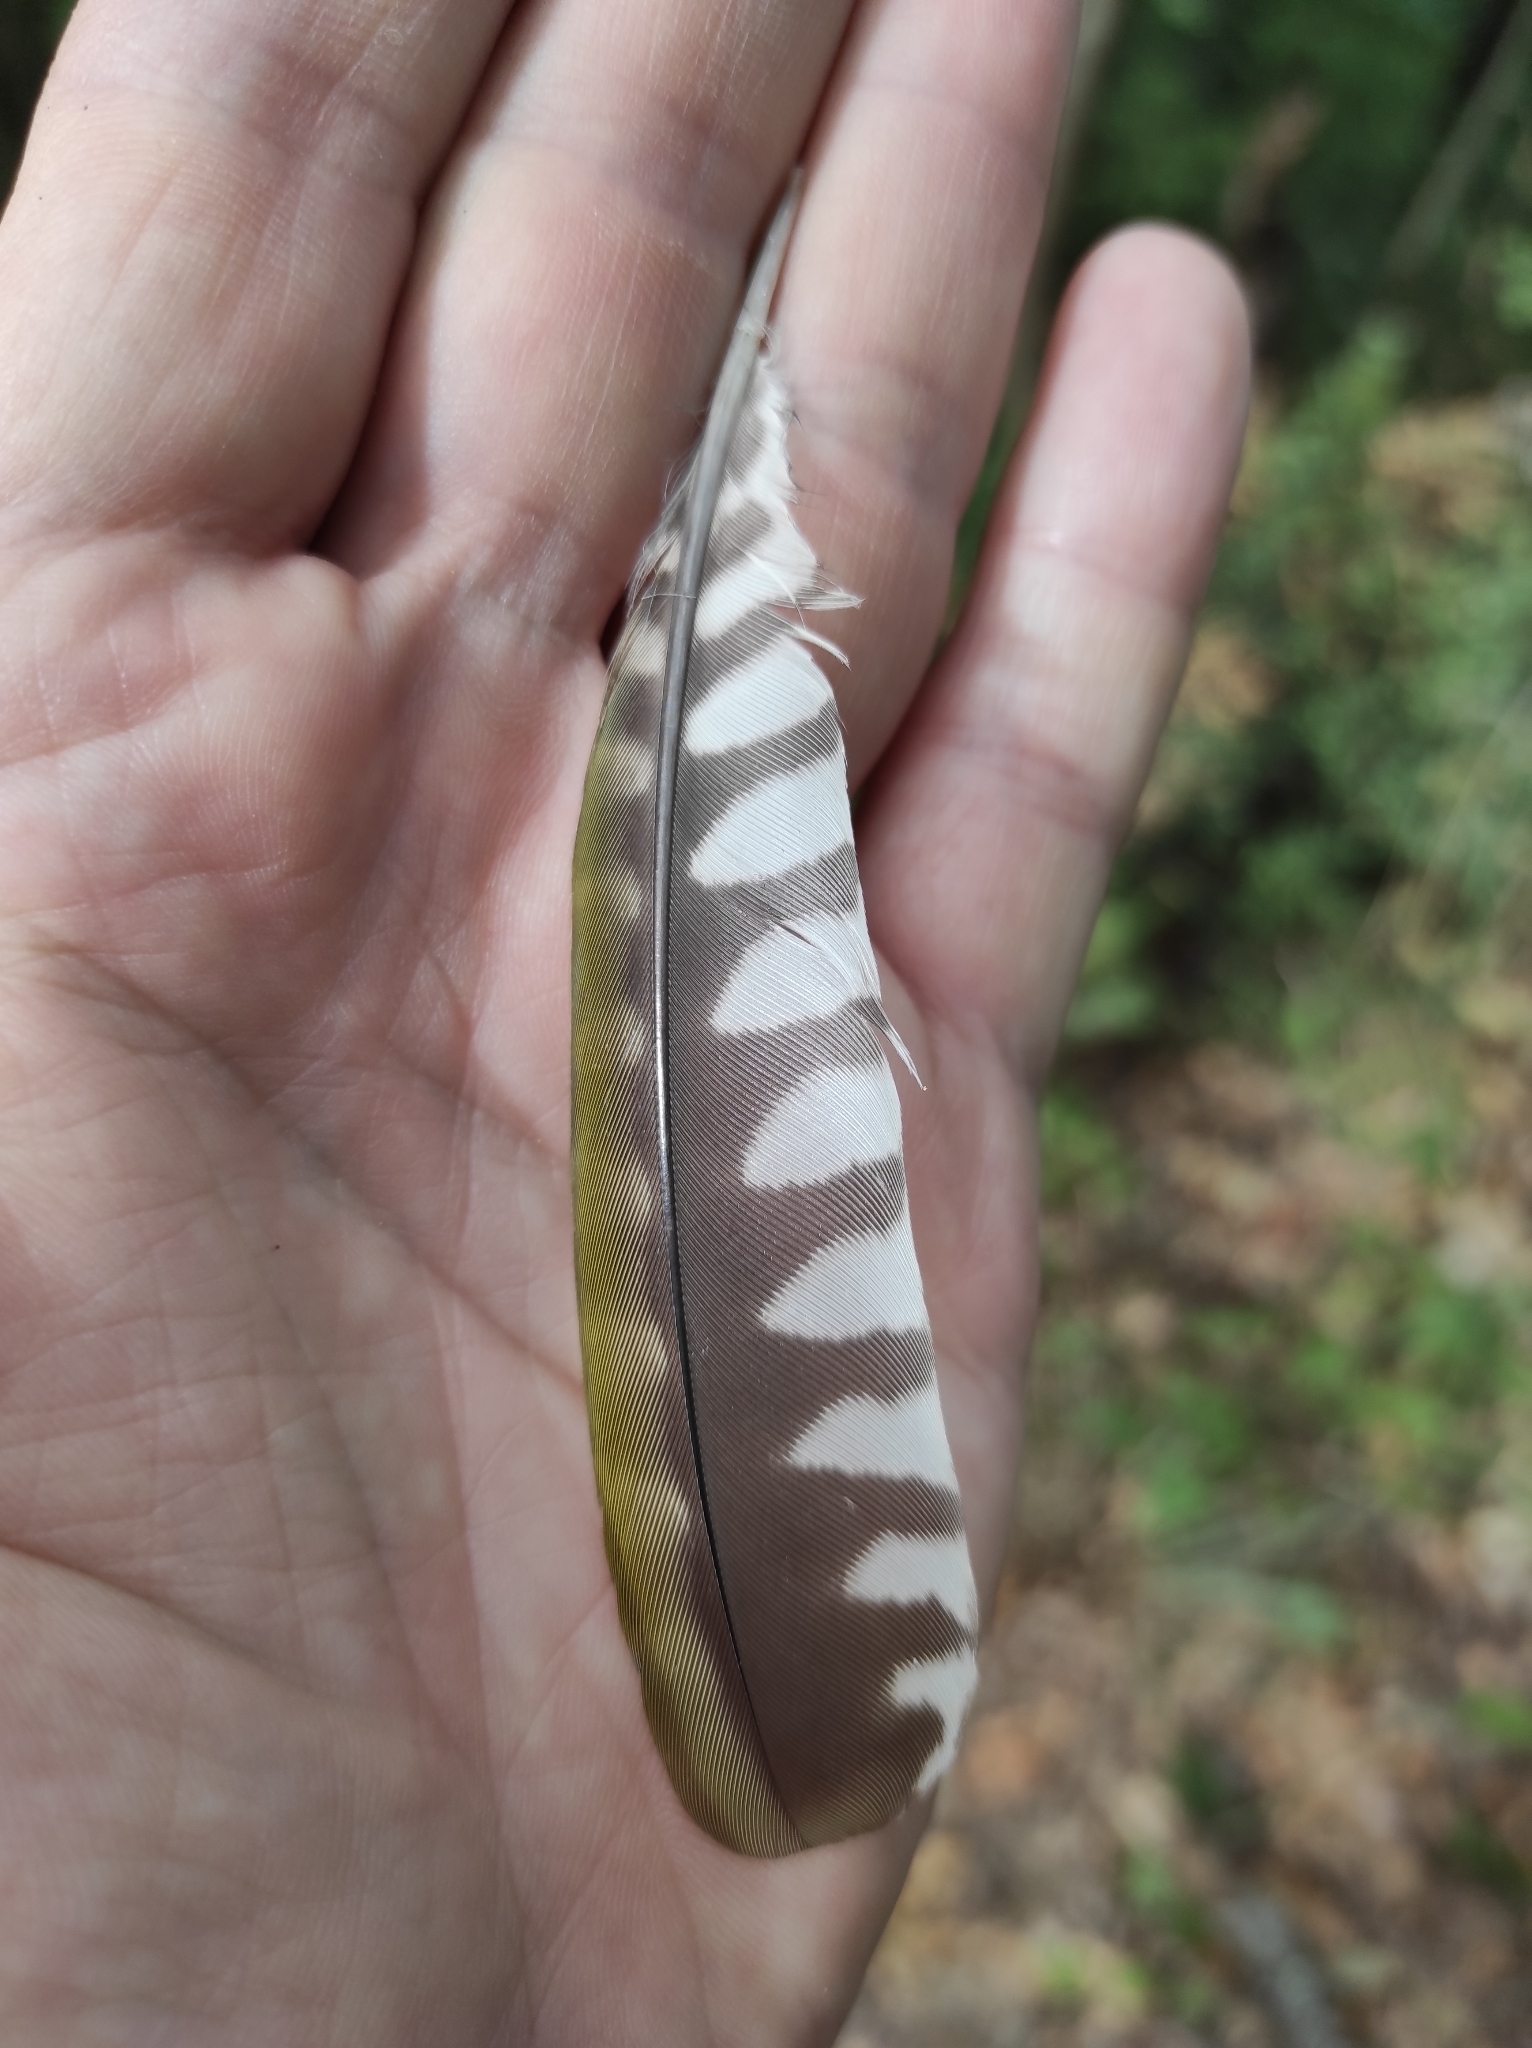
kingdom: Animalia
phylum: Chordata
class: Aves
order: Piciformes
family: Picidae
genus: Picus
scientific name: Picus viridis
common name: European green woodpecker
